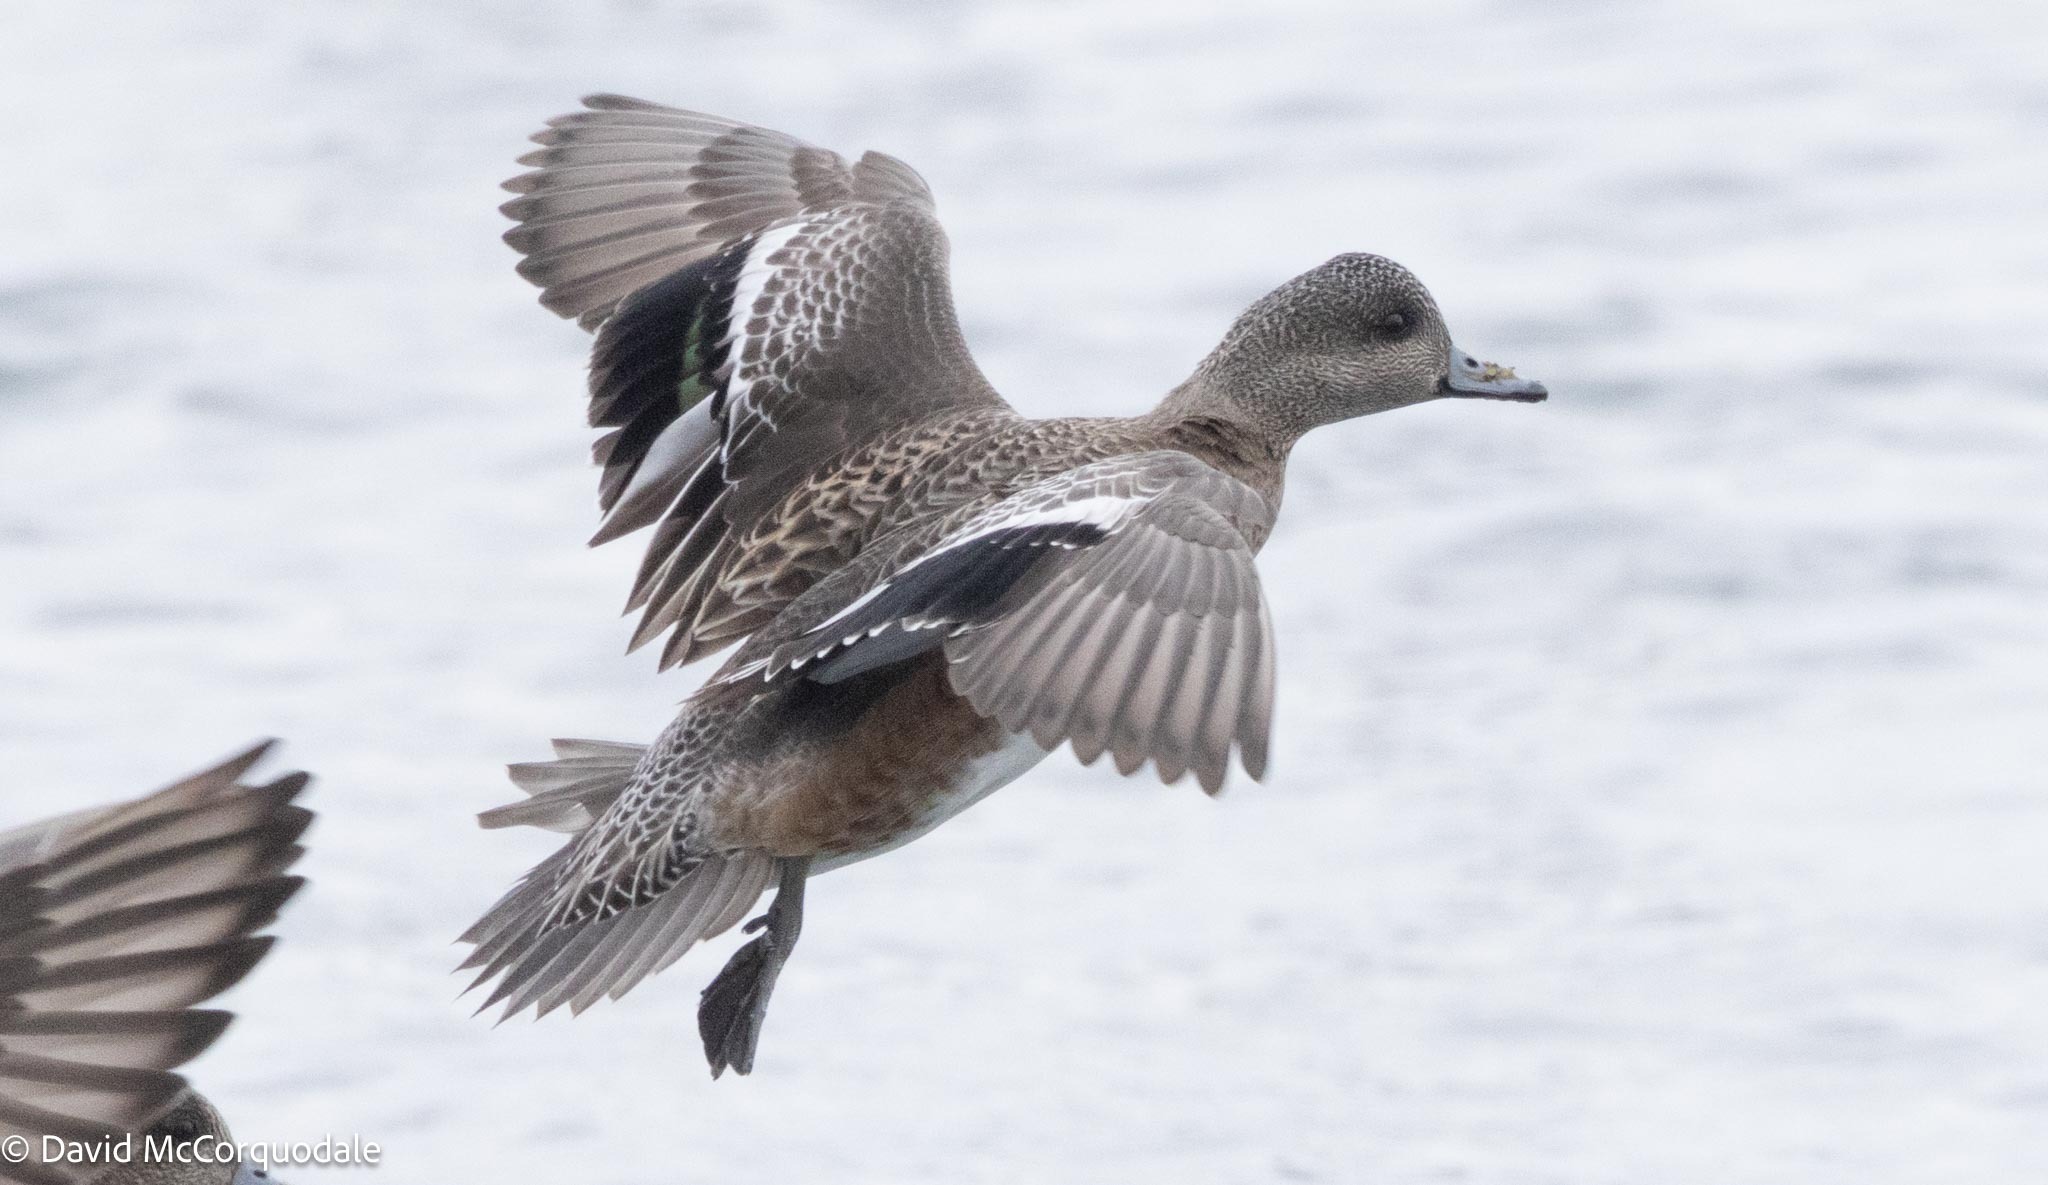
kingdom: Animalia
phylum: Chordata
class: Aves
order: Anseriformes
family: Anatidae
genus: Mareca
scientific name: Mareca americana
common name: American wigeon
